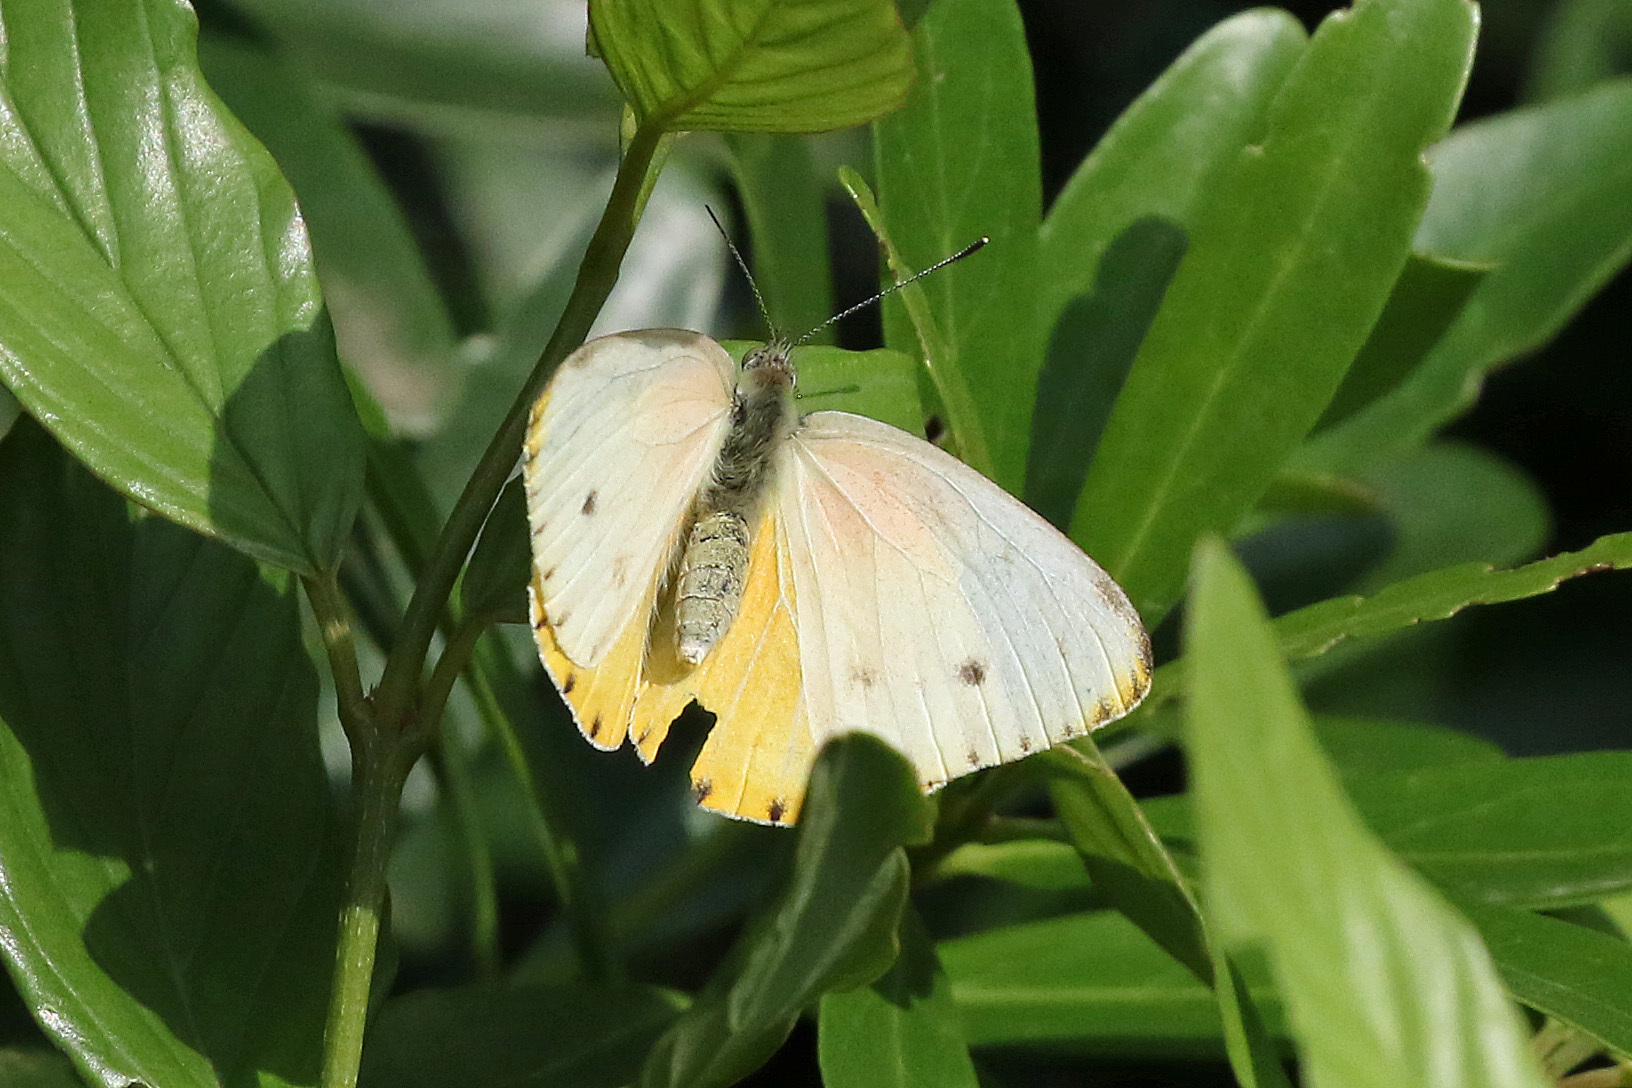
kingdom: Animalia
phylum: Arthropoda
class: Insecta
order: Lepidoptera
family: Pieridae
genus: Dixeia
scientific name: Dixeia pigea
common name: Ant-heap small white
